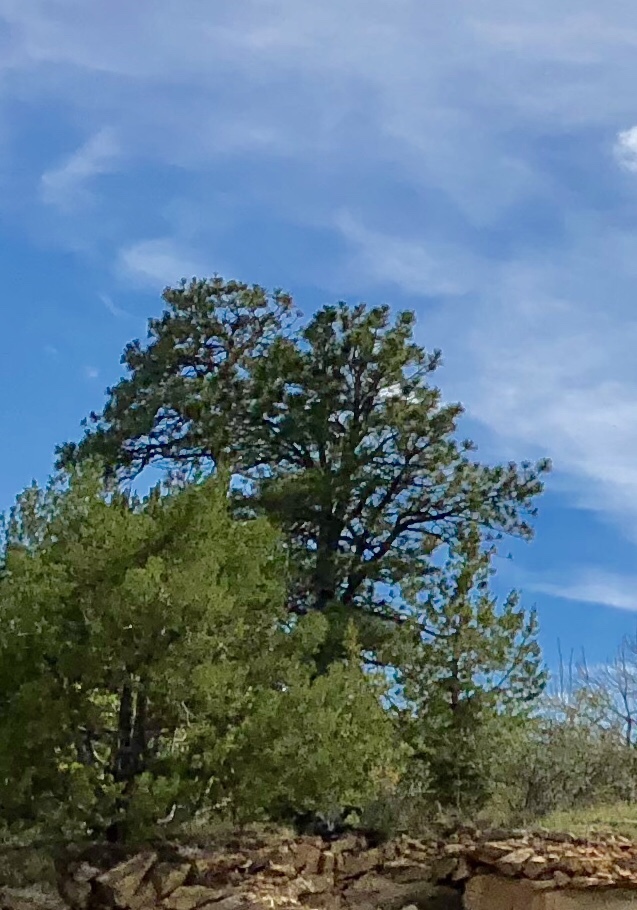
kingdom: Plantae
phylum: Tracheophyta
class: Pinopsida
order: Pinales
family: Pinaceae
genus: Pinus
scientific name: Pinus ponderosa
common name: Western yellow-pine
